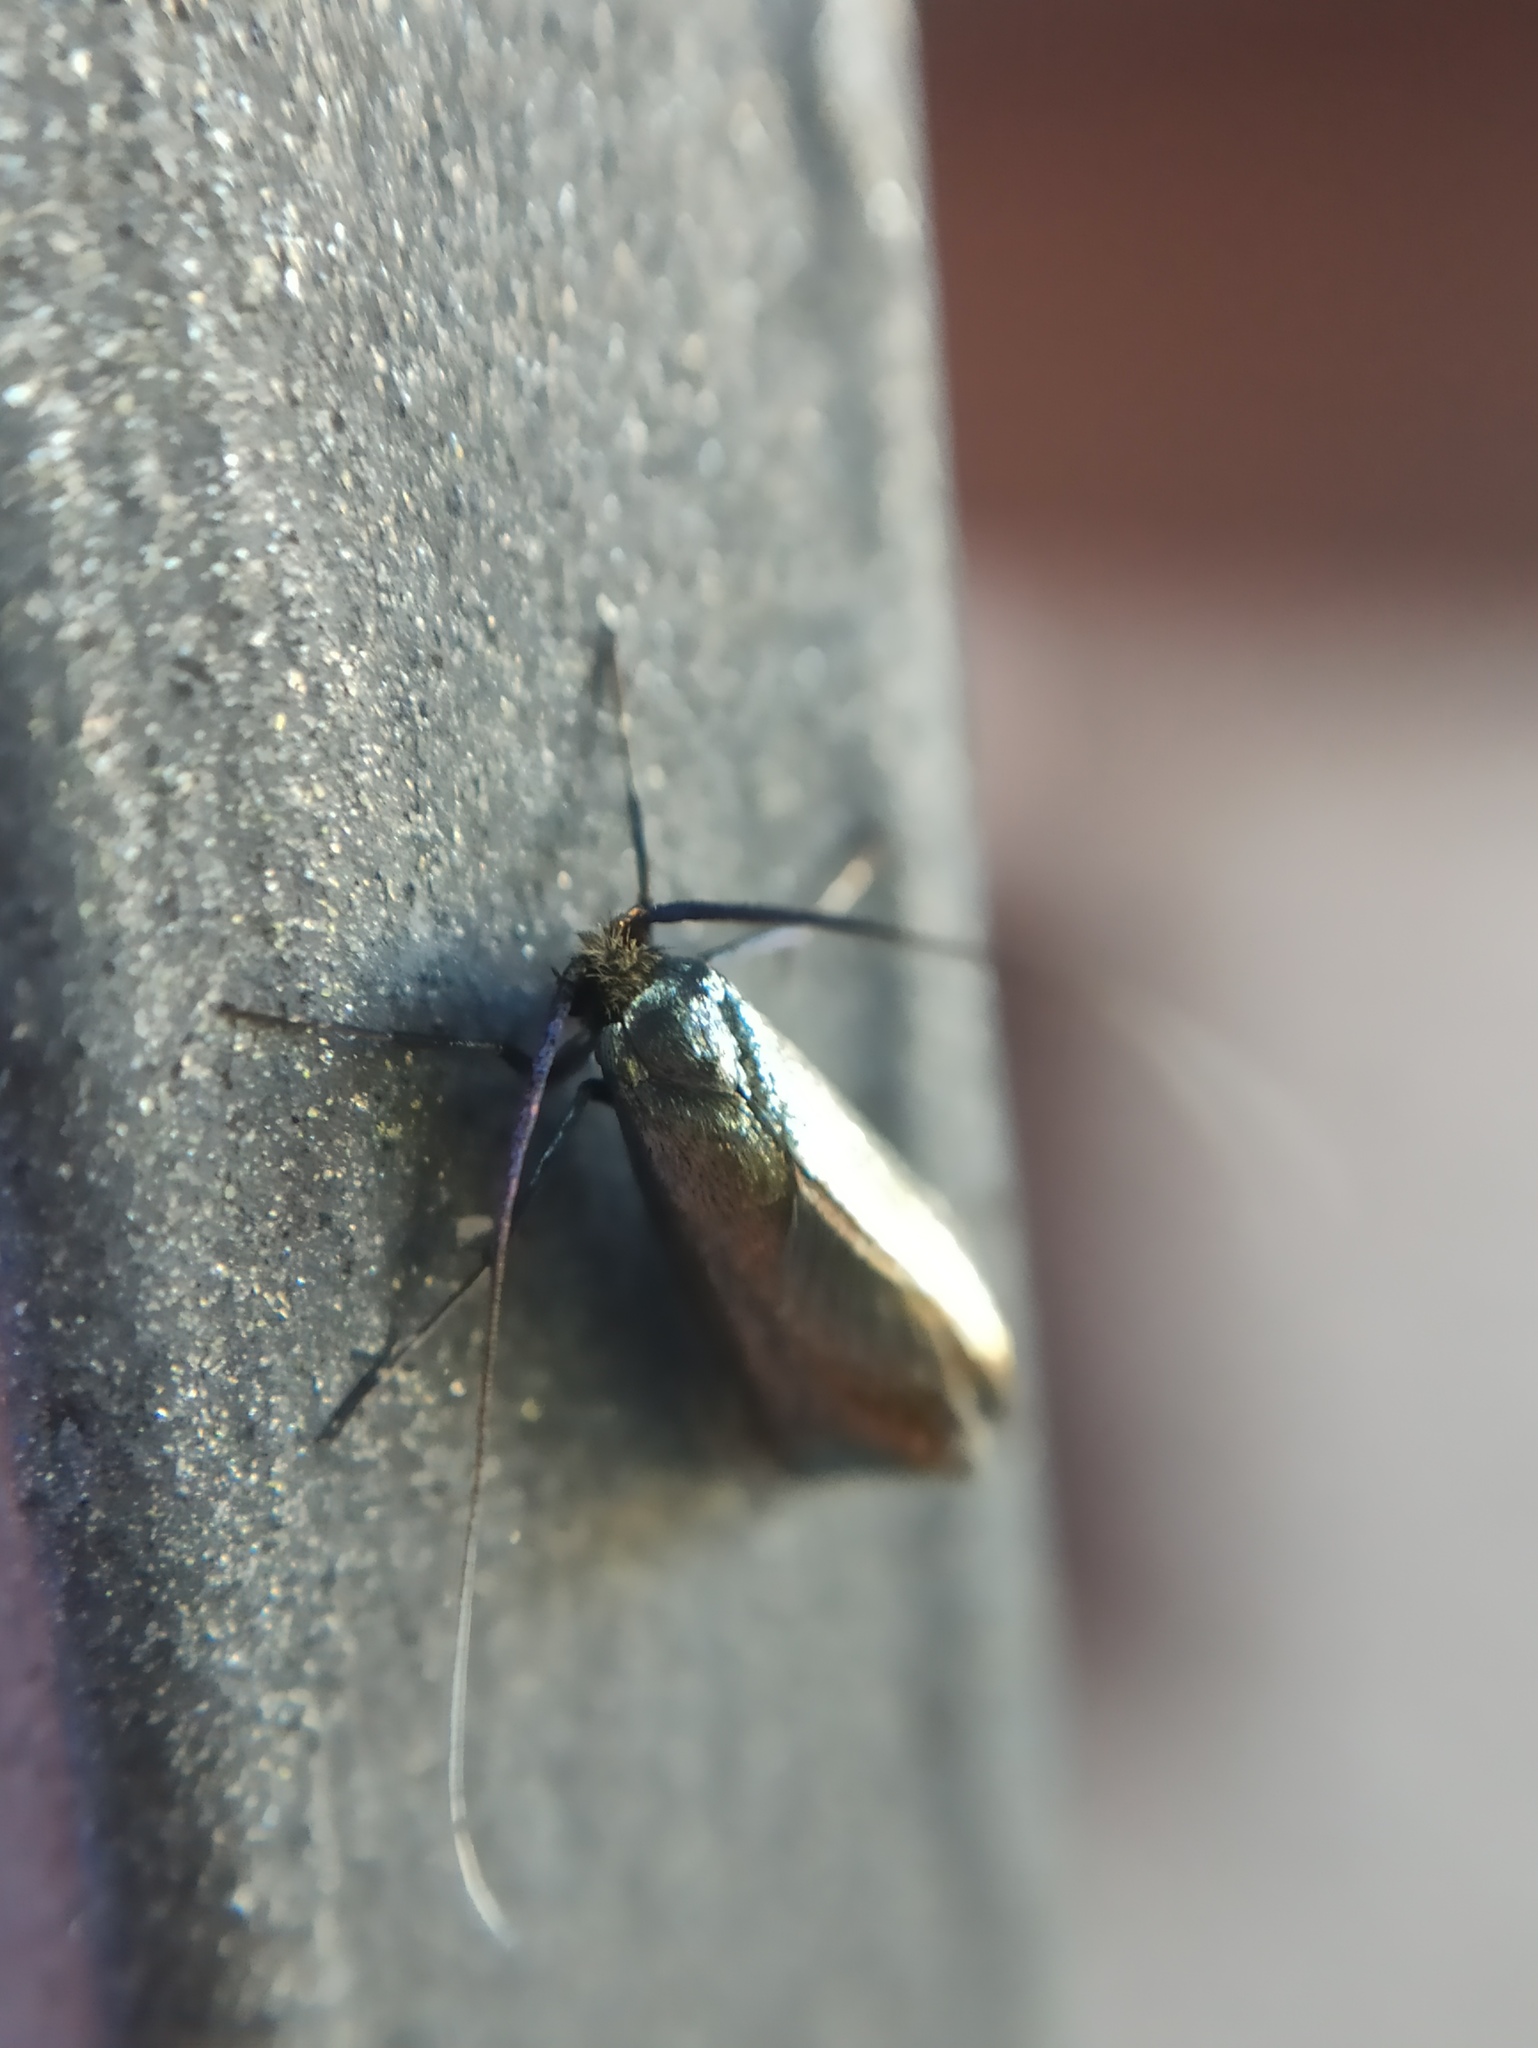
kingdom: Animalia
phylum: Arthropoda
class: Insecta
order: Lepidoptera
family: Adelidae
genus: Adela
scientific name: Adela viridella
